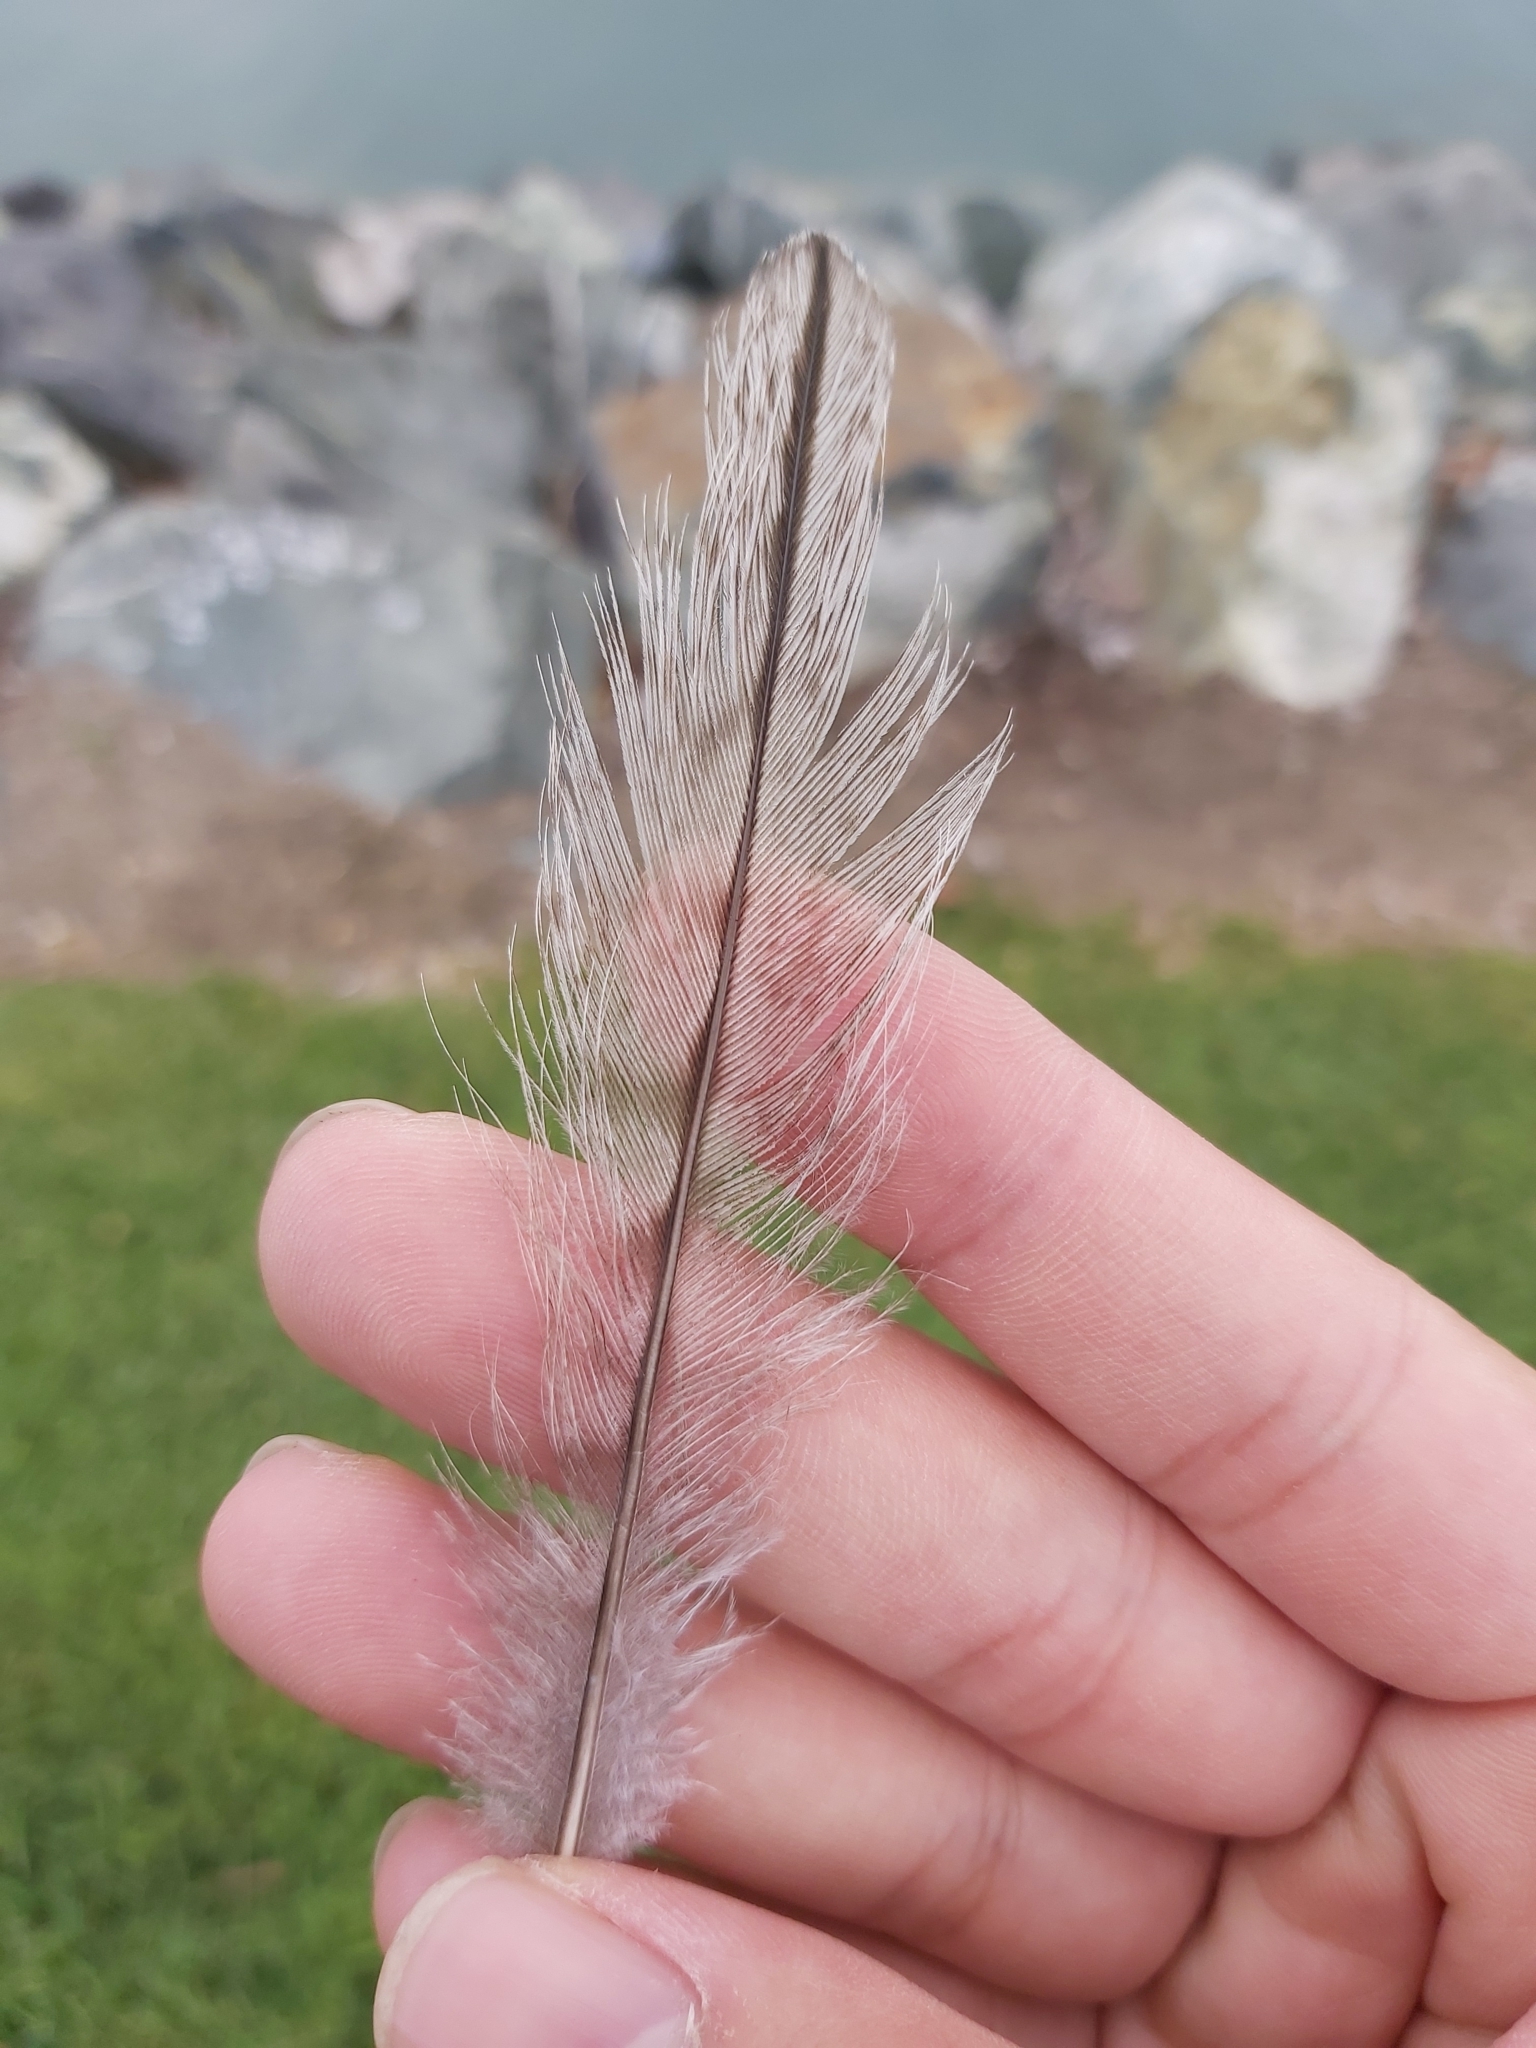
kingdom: Animalia
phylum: Chordata
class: Aves
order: Charadriiformes
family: Burhinidae
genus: Burhinus
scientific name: Burhinus grallarius
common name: Bush stone-curlew
